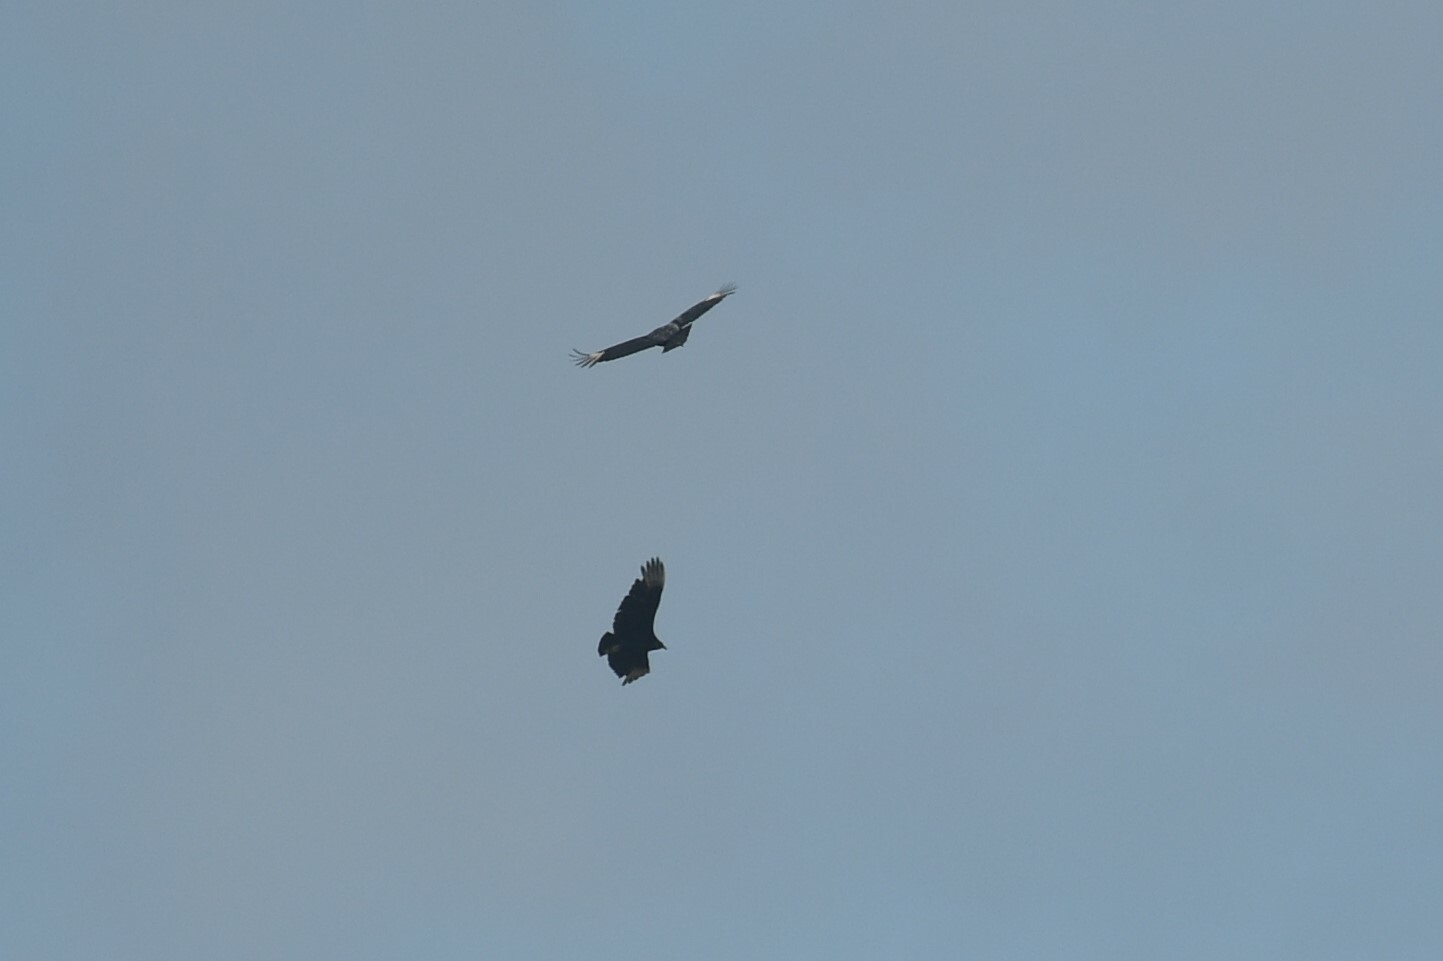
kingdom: Animalia
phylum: Chordata
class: Aves
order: Accipitriformes
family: Cathartidae
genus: Coragyps
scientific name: Coragyps atratus
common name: Black vulture
